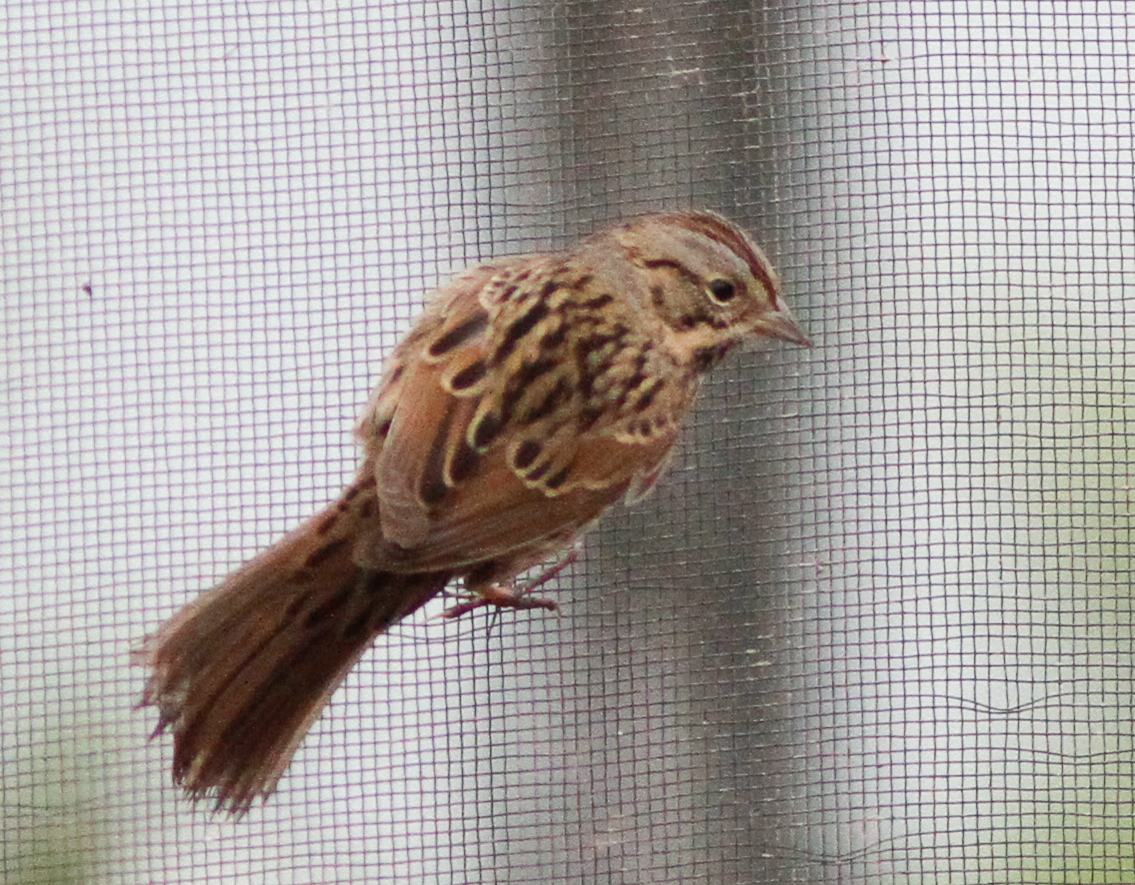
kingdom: Animalia
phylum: Chordata
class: Aves
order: Passeriformes
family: Passerellidae
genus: Melospiza
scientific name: Melospiza lincolnii
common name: Lincoln's sparrow
